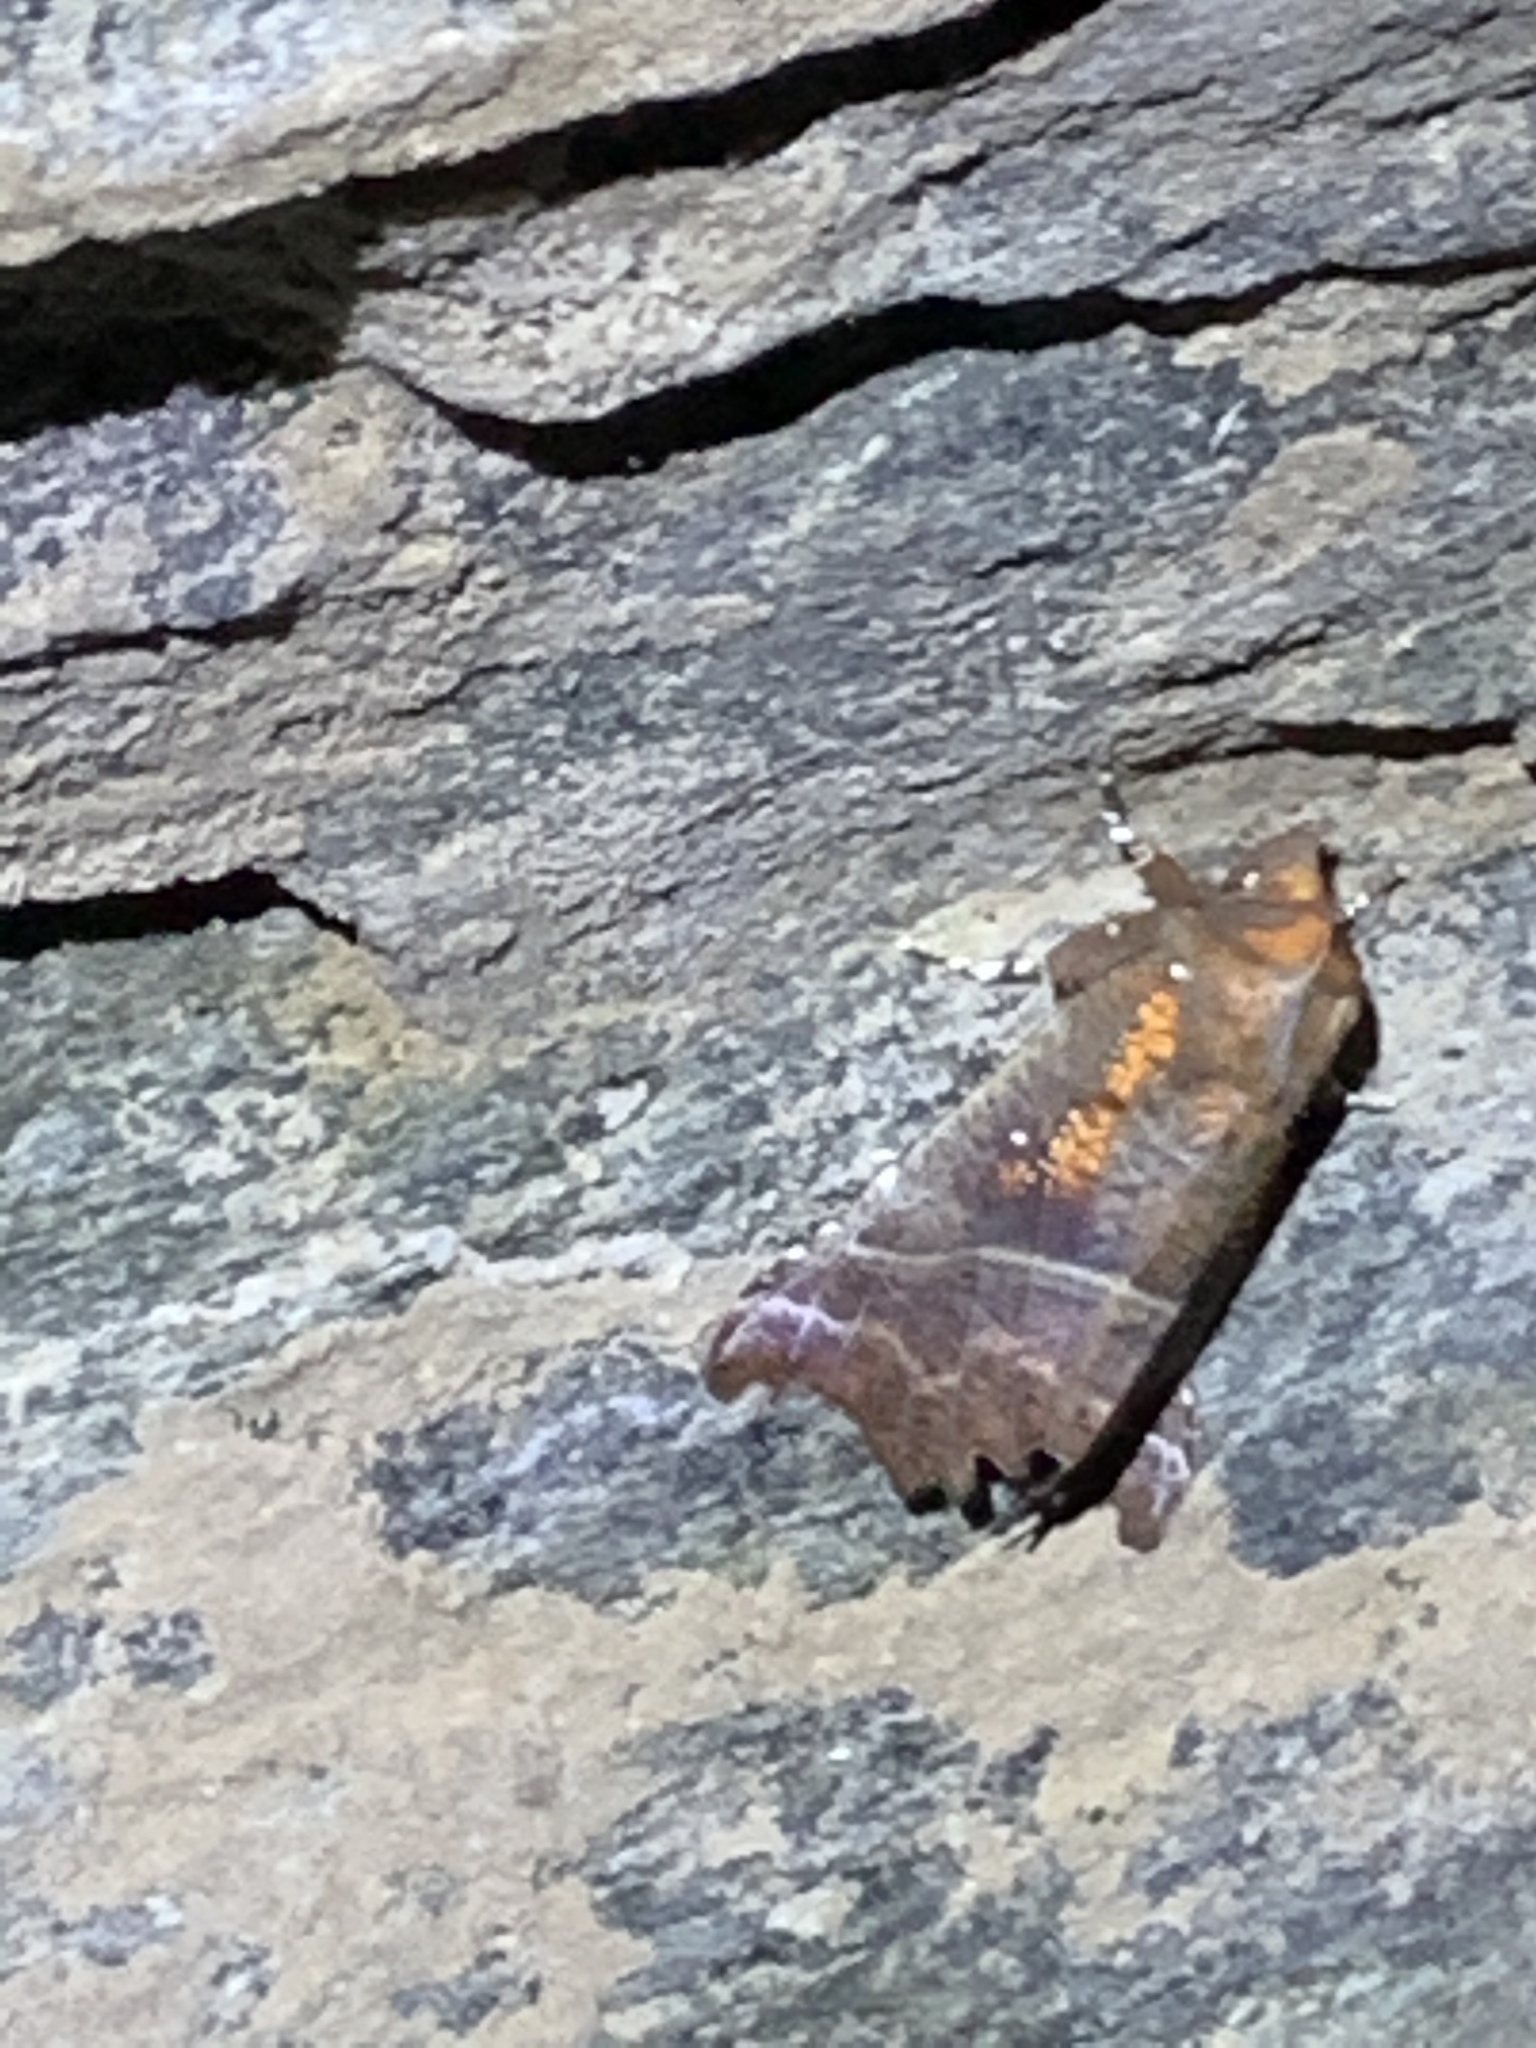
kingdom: Animalia
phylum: Arthropoda
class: Insecta
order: Lepidoptera
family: Erebidae
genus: Scoliopteryx
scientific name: Scoliopteryx libatrix
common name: Herald
